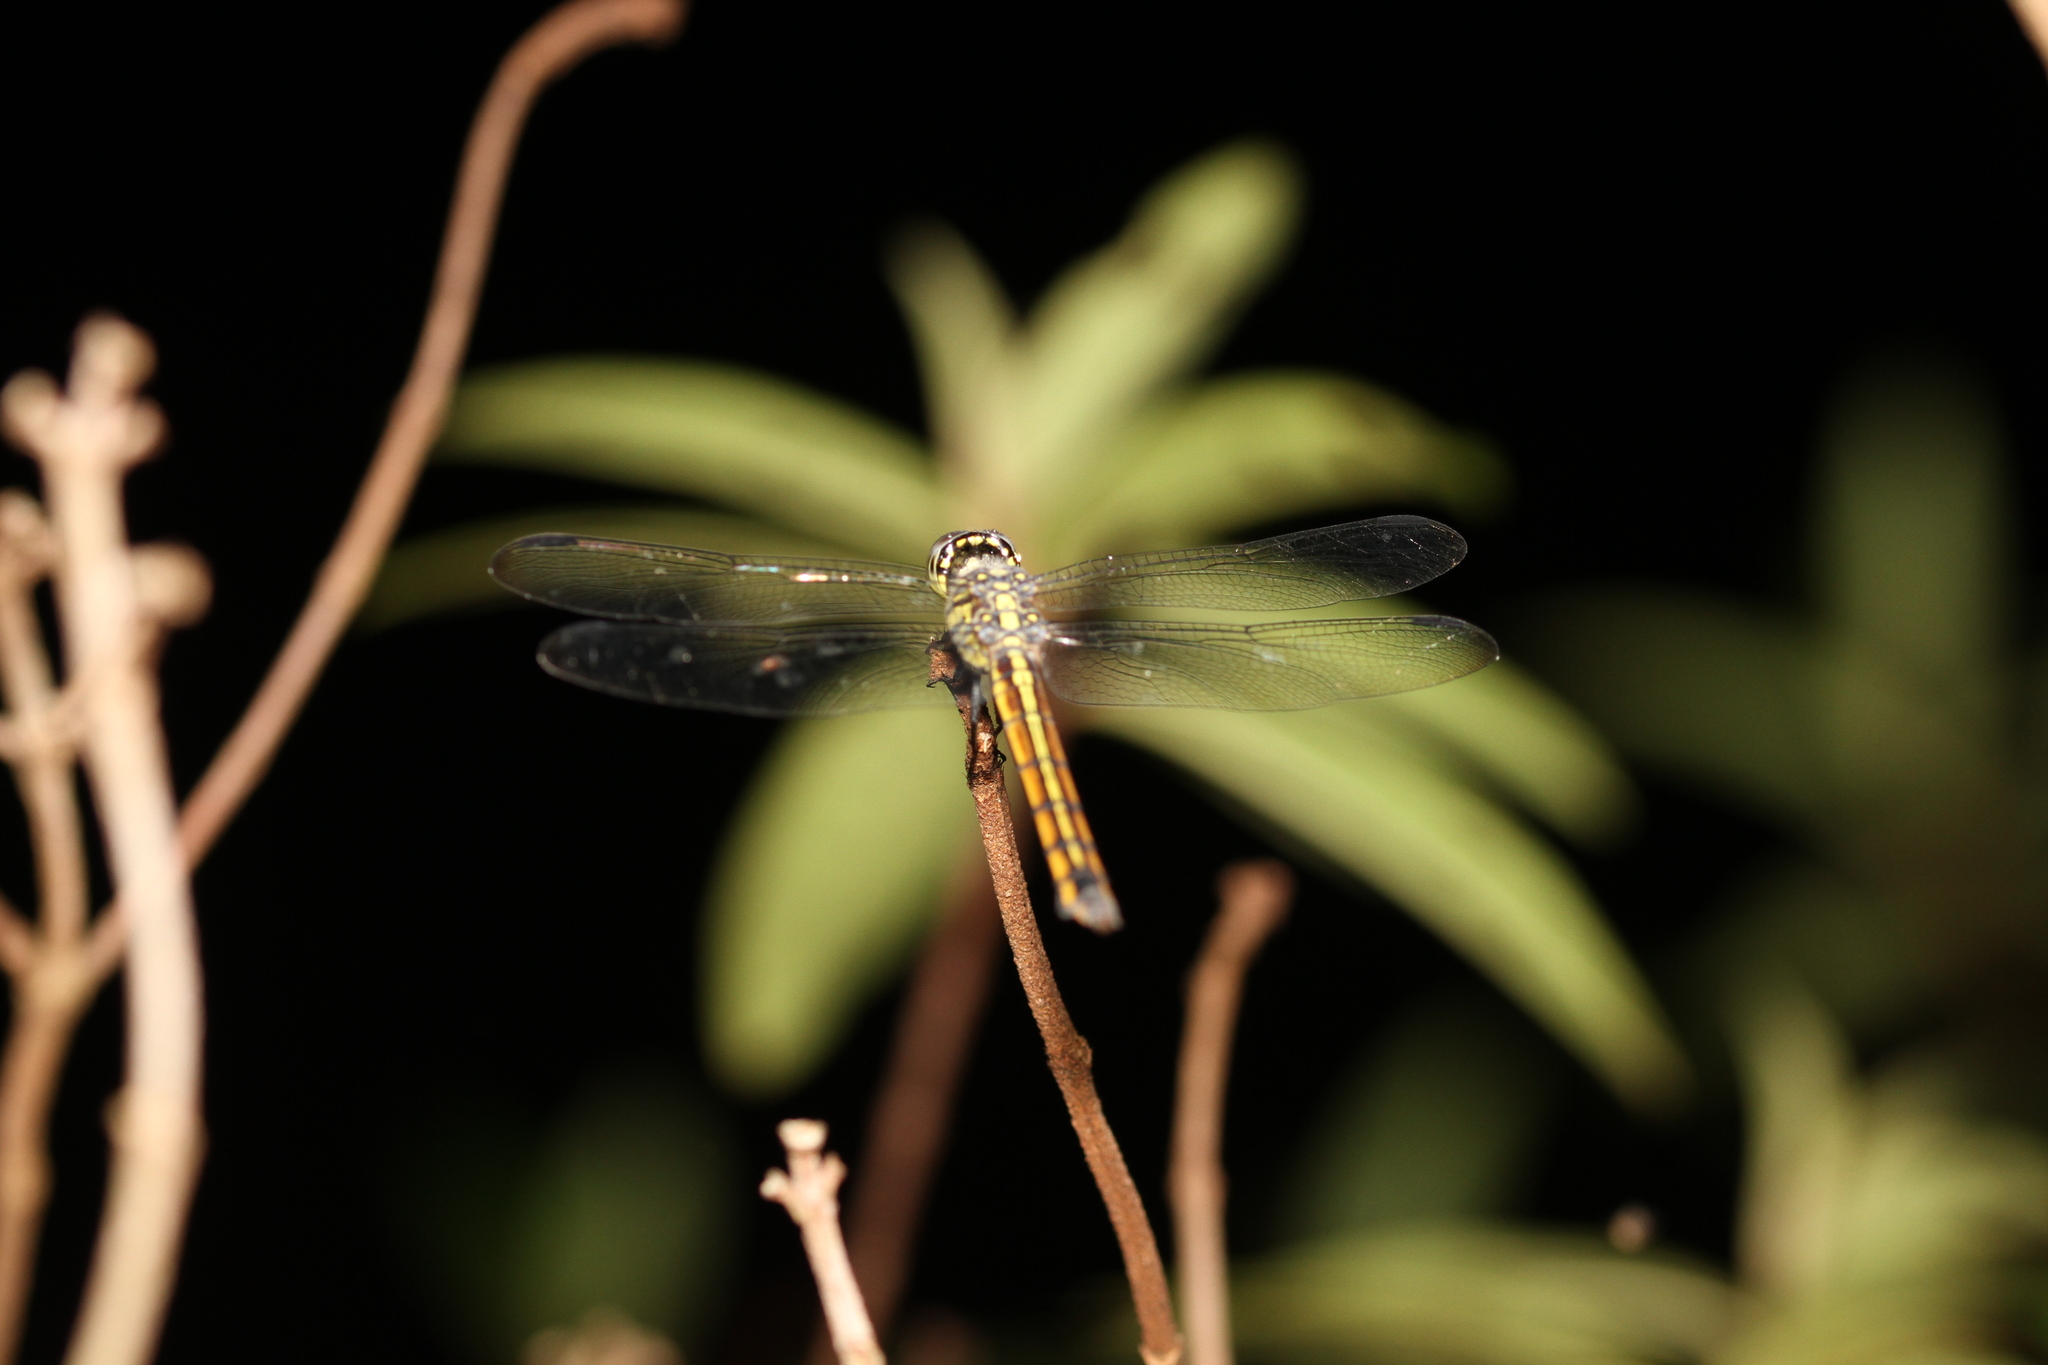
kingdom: Animalia
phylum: Arthropoda
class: Insecta
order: Odonata
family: Libellulidae
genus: Potamarcha
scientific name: Potamarcha congener
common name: Blue chaser
